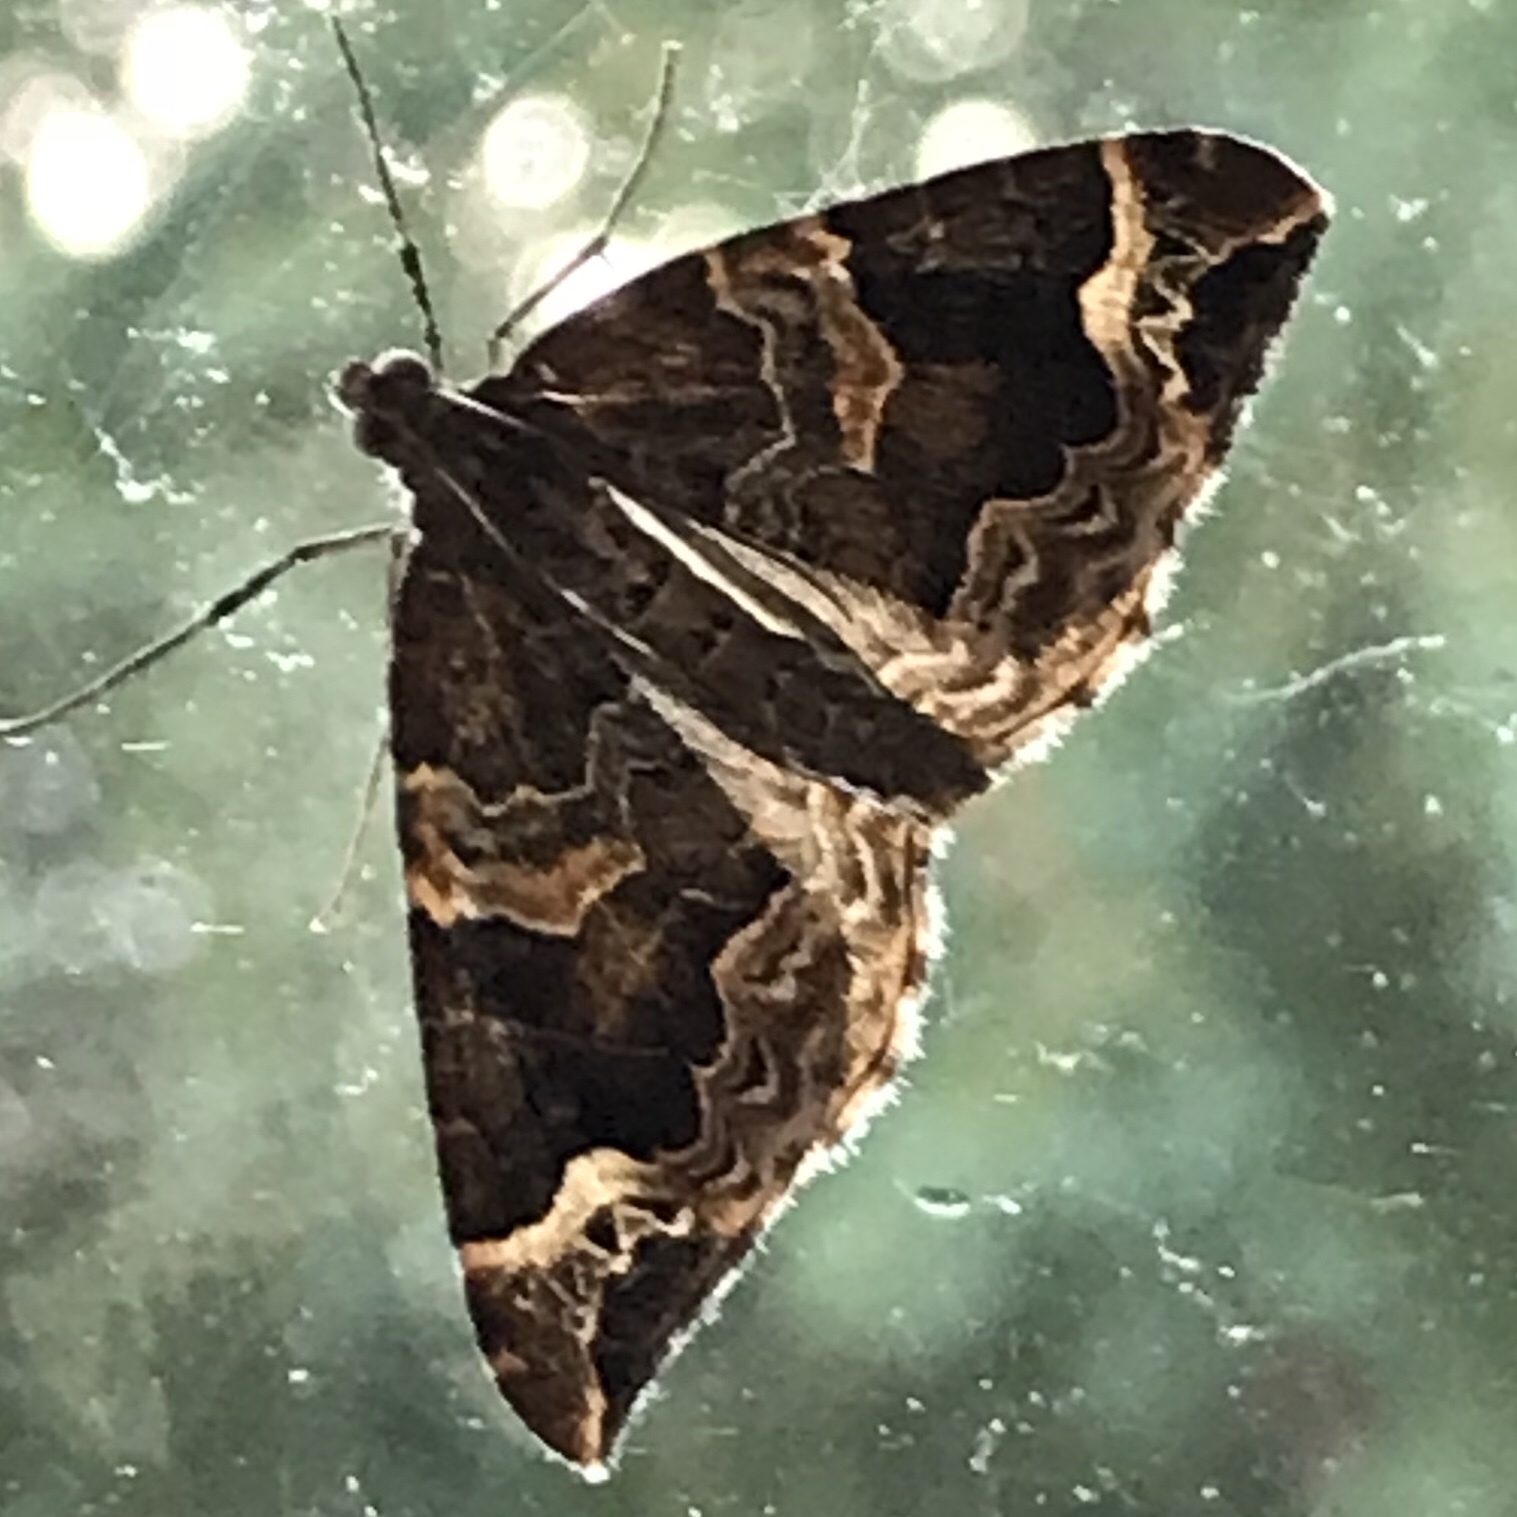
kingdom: Animalia
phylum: Arthropoda
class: Insecta
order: Lepidoptera
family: Geometridae
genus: Eulithis
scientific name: Eulithis prunata
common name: Phoenix
